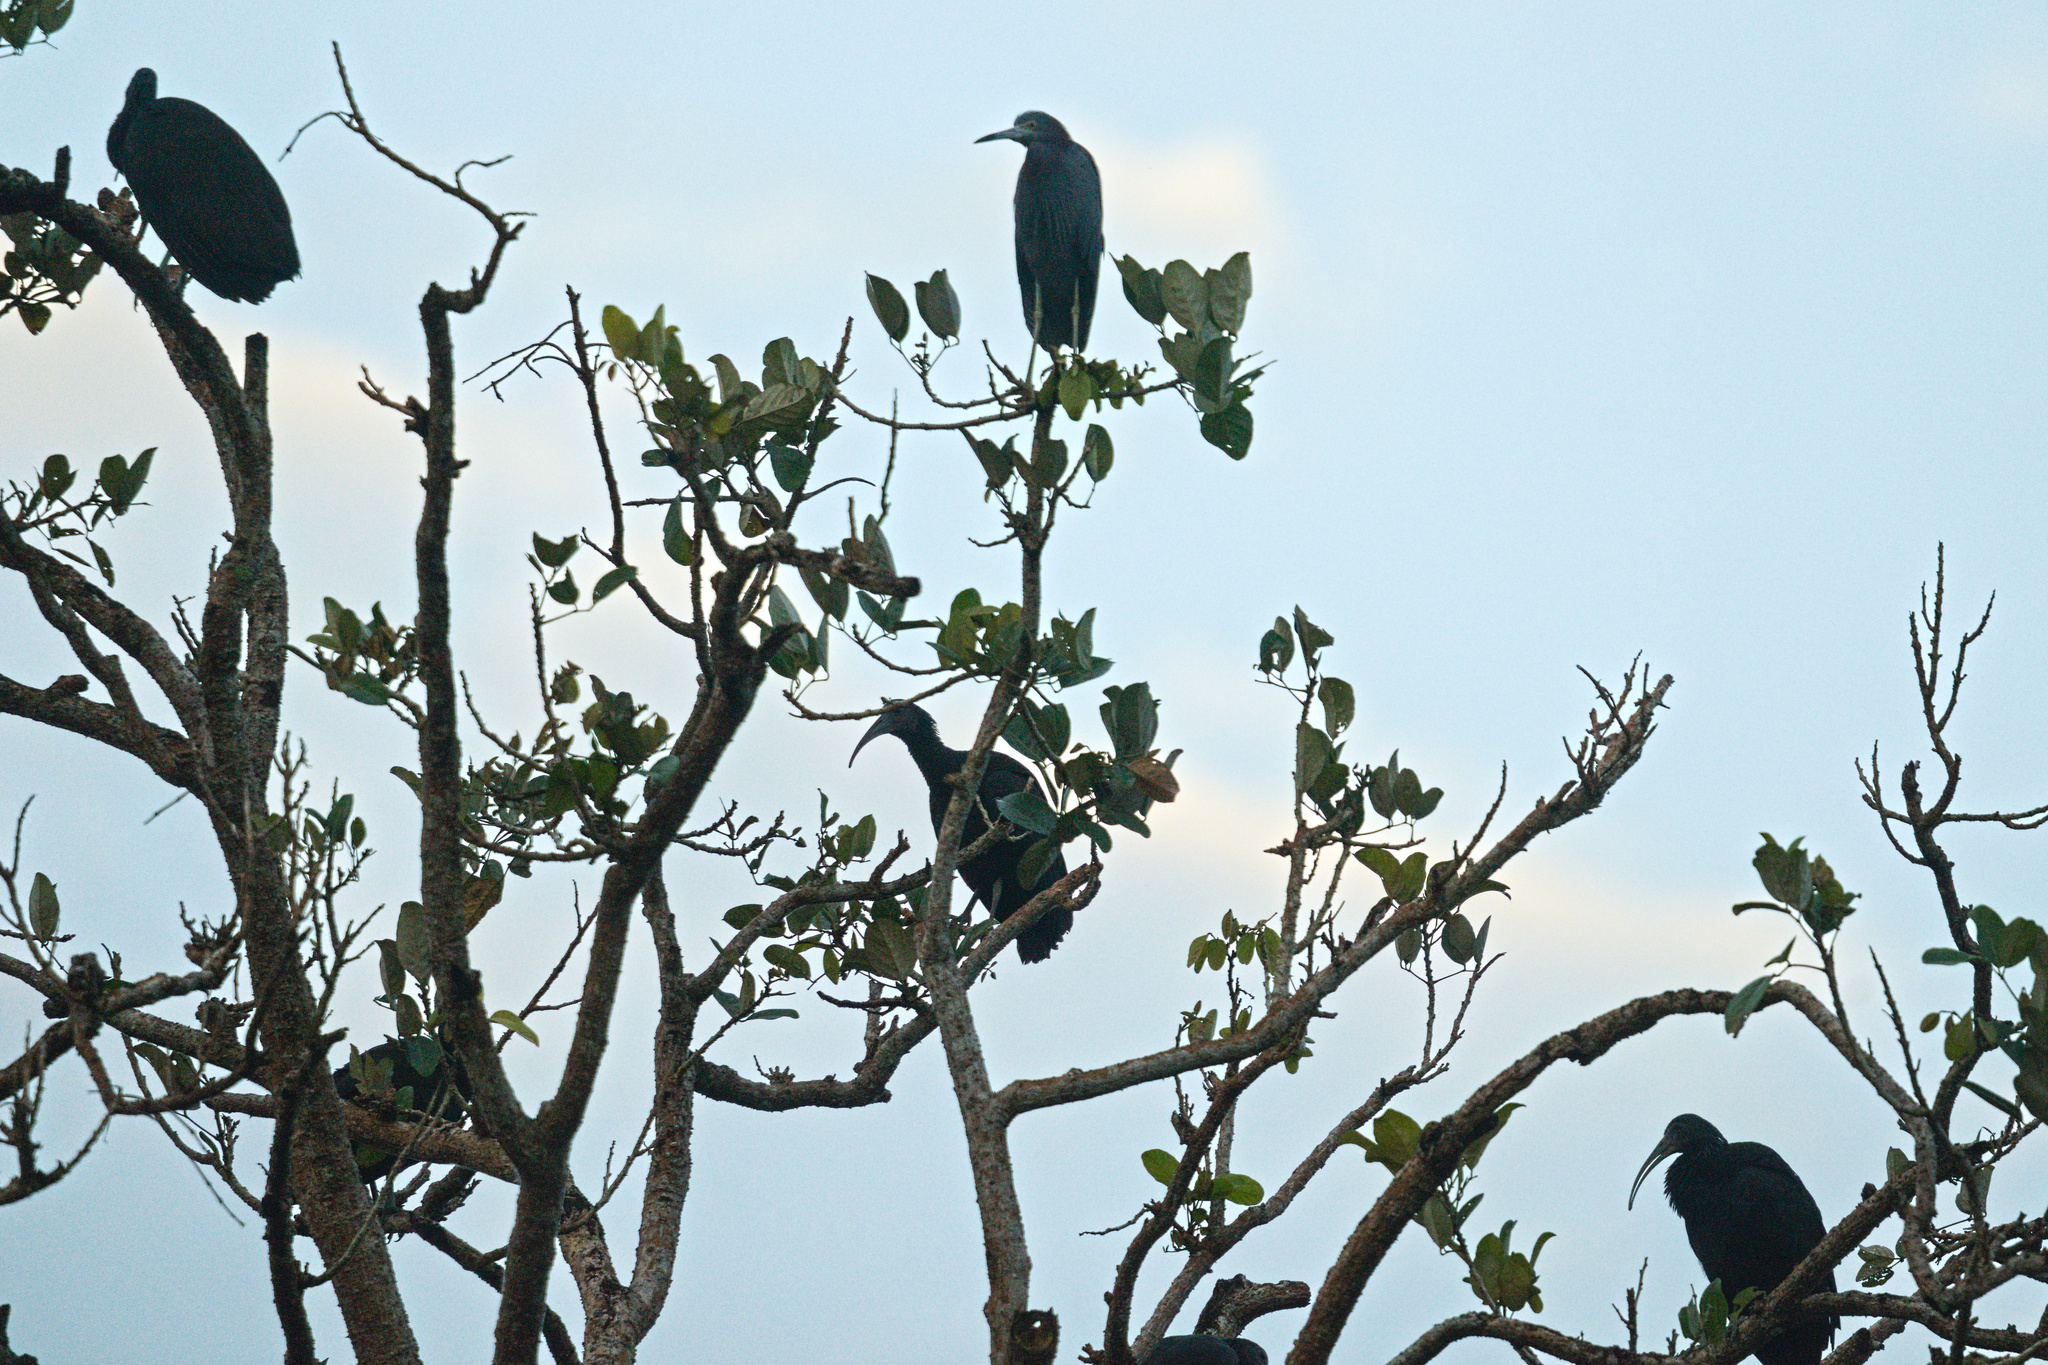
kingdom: Animalia
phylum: Chordata
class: Aves
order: Pelecaniformes
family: Ardeidae
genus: Egretta
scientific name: Egretta caerulea
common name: Little blue heron
